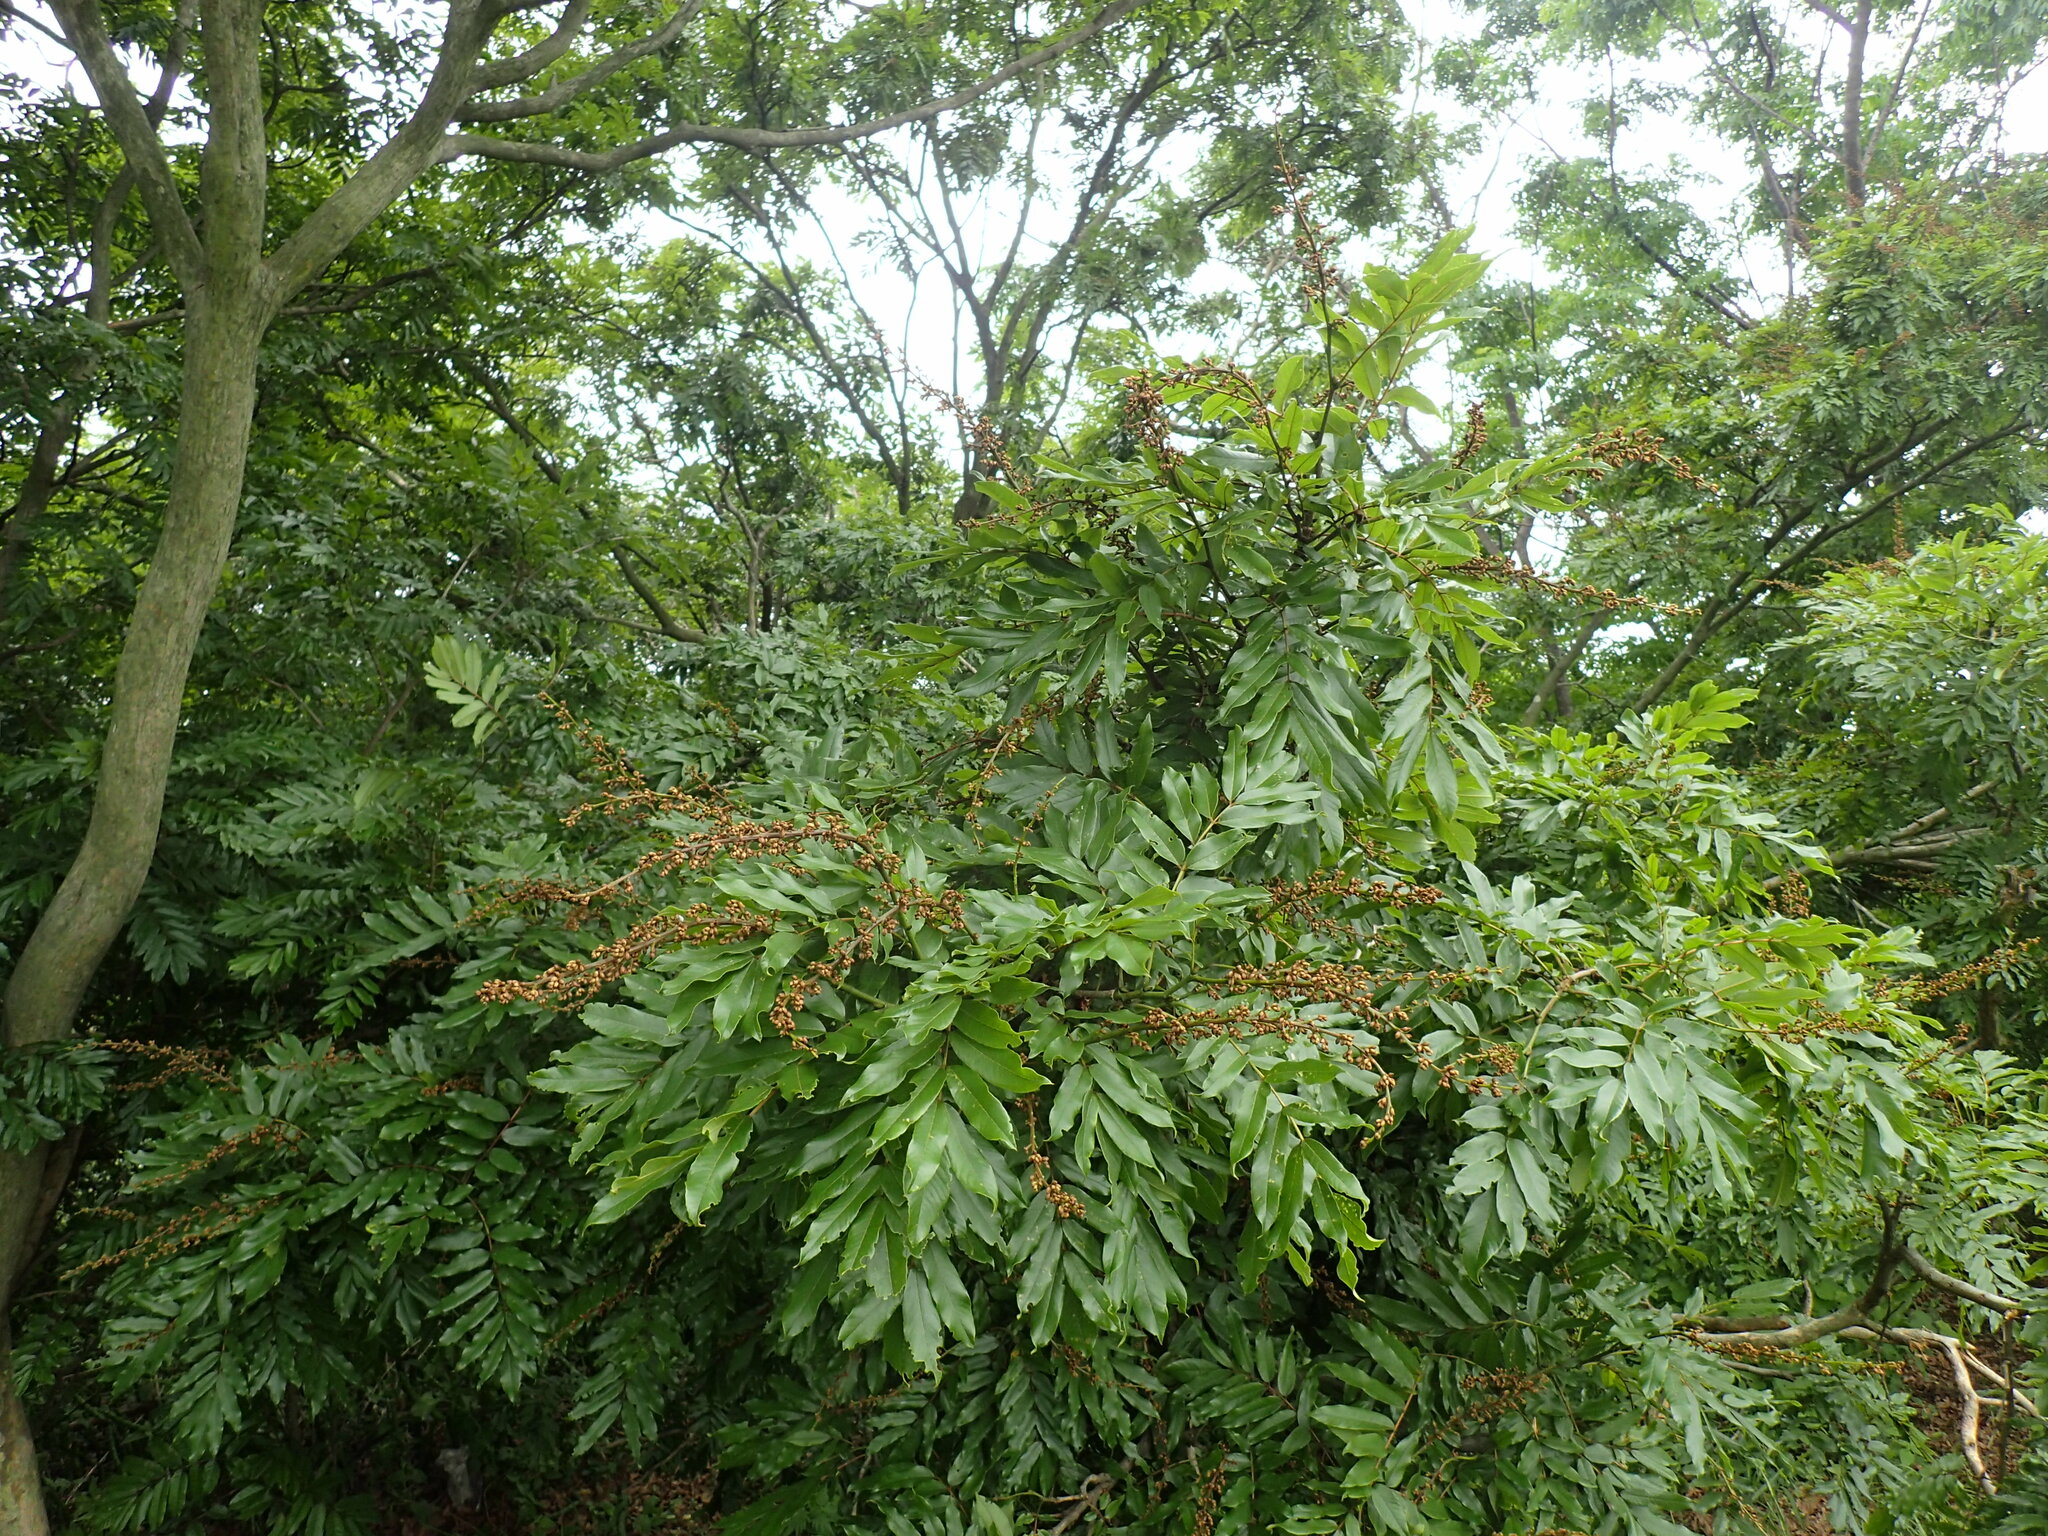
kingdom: Plantae
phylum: Tracheophyta
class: Magnoliopsida
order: Fabales
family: Fabaceae
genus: Millettia
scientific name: Millettia grandis
